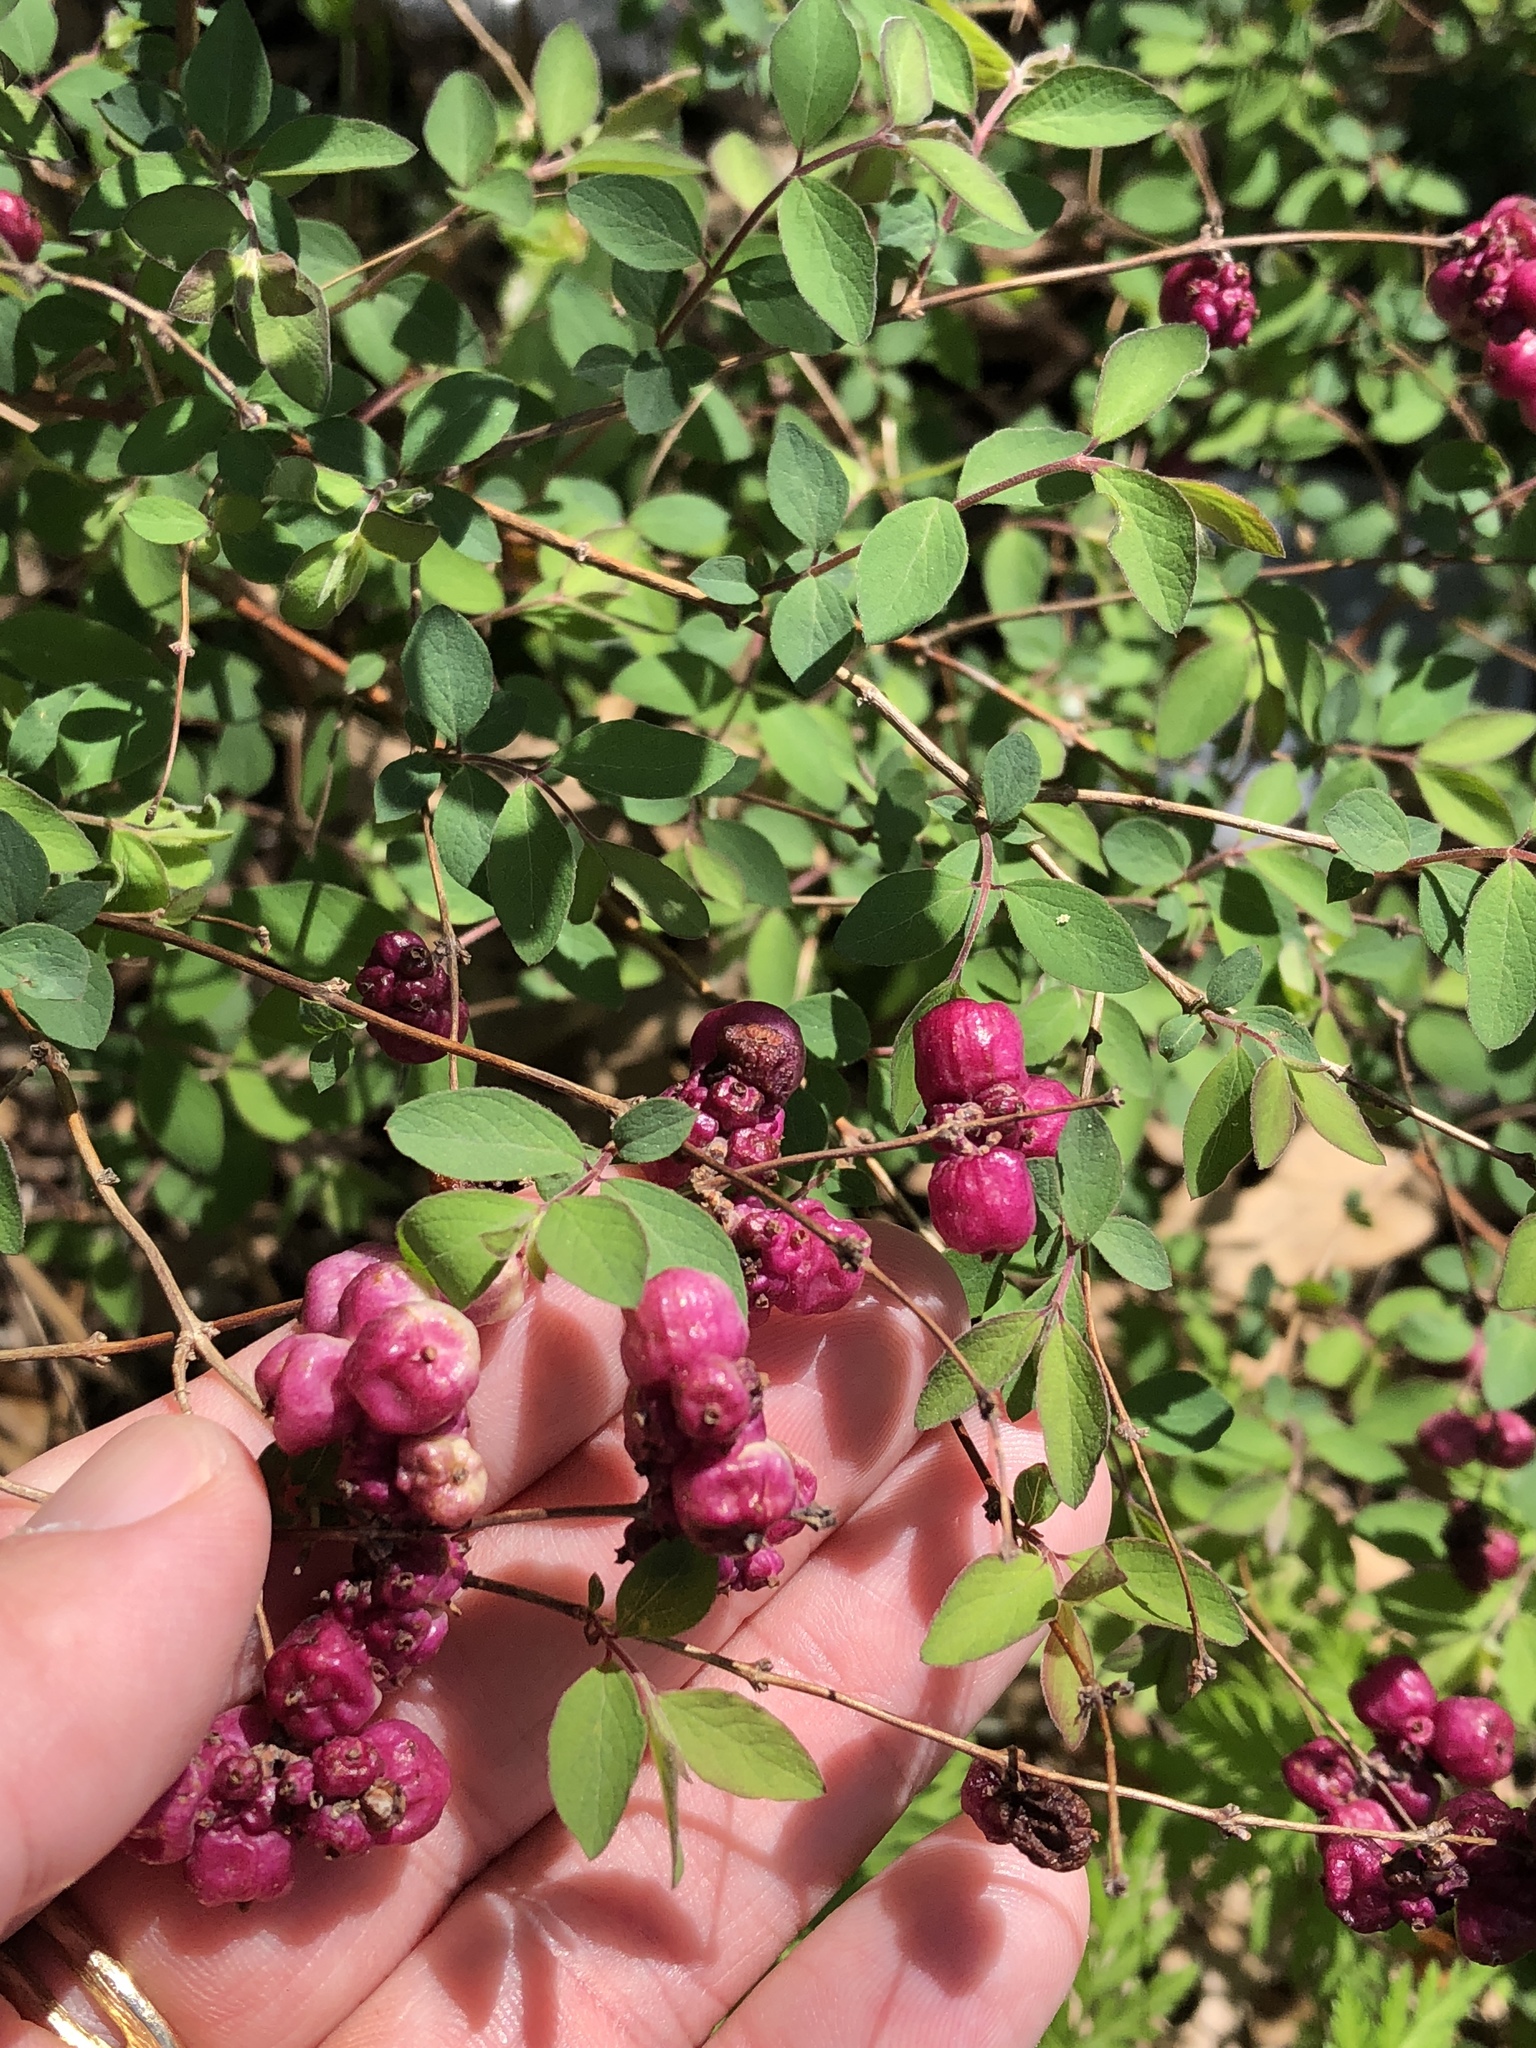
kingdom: Plantae
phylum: Tracheophyta
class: Magnoliopsida
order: Dipsacales
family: Caprifoliaceae
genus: Symphoricarpos
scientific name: Symphoricarpos orbiculatus
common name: Coralberry
